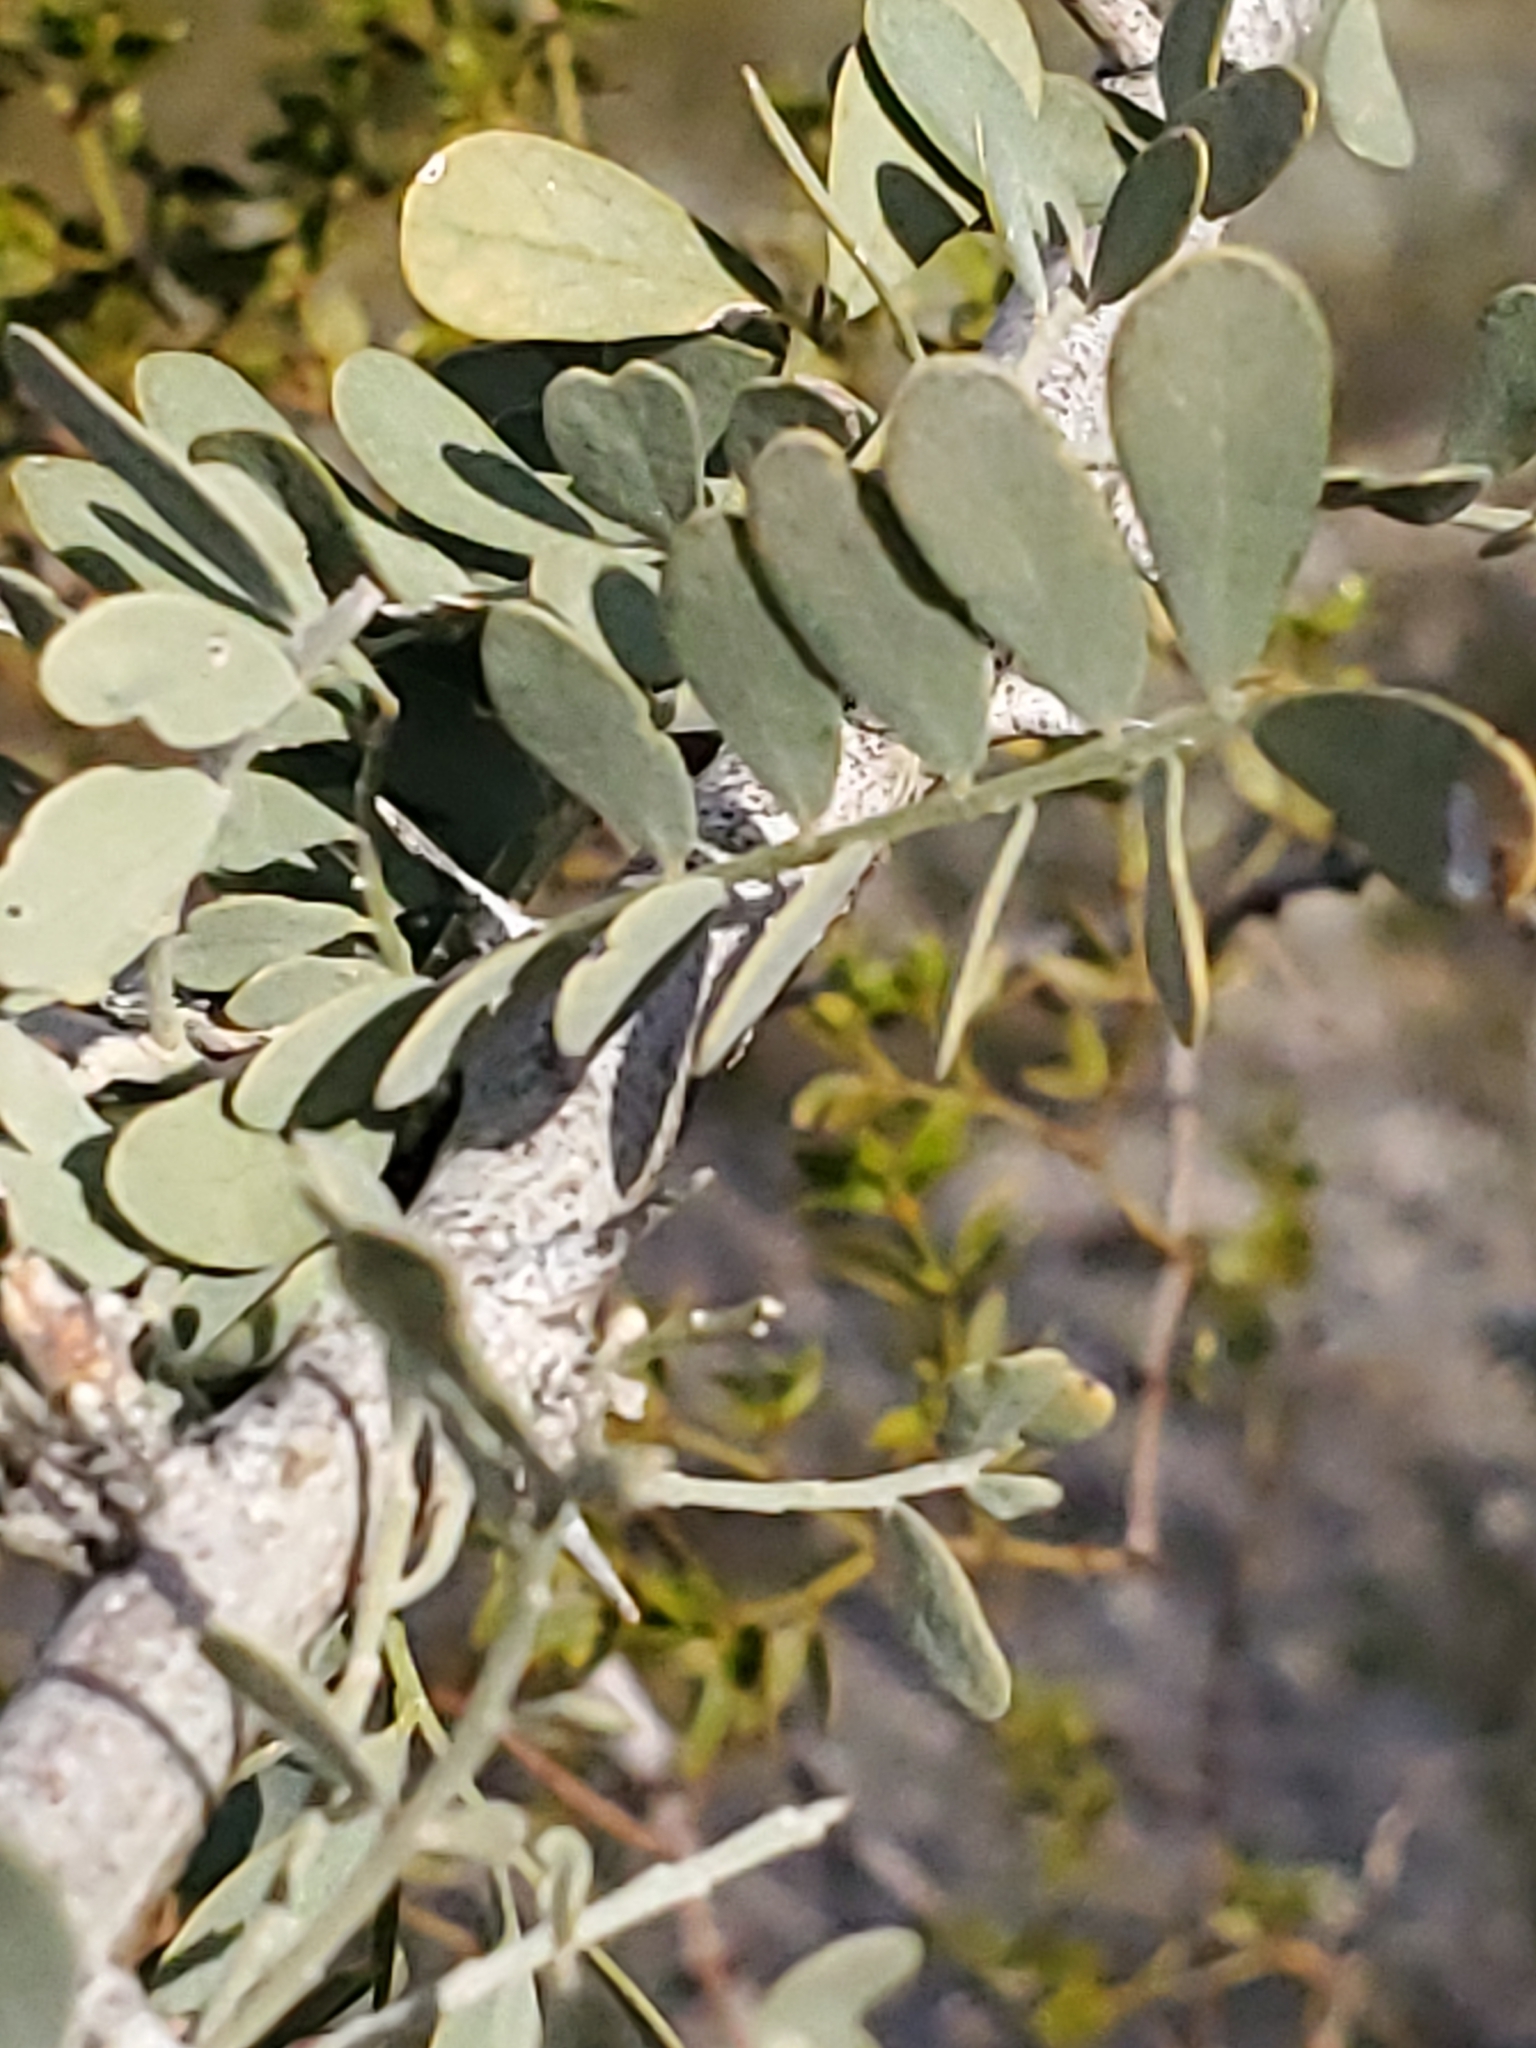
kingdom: Plantae
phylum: Tracheophyta
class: Magnoliopsida
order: Fabales
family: Fabaceae
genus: Olneya
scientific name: Olneya tesota
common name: Desert ironwood
